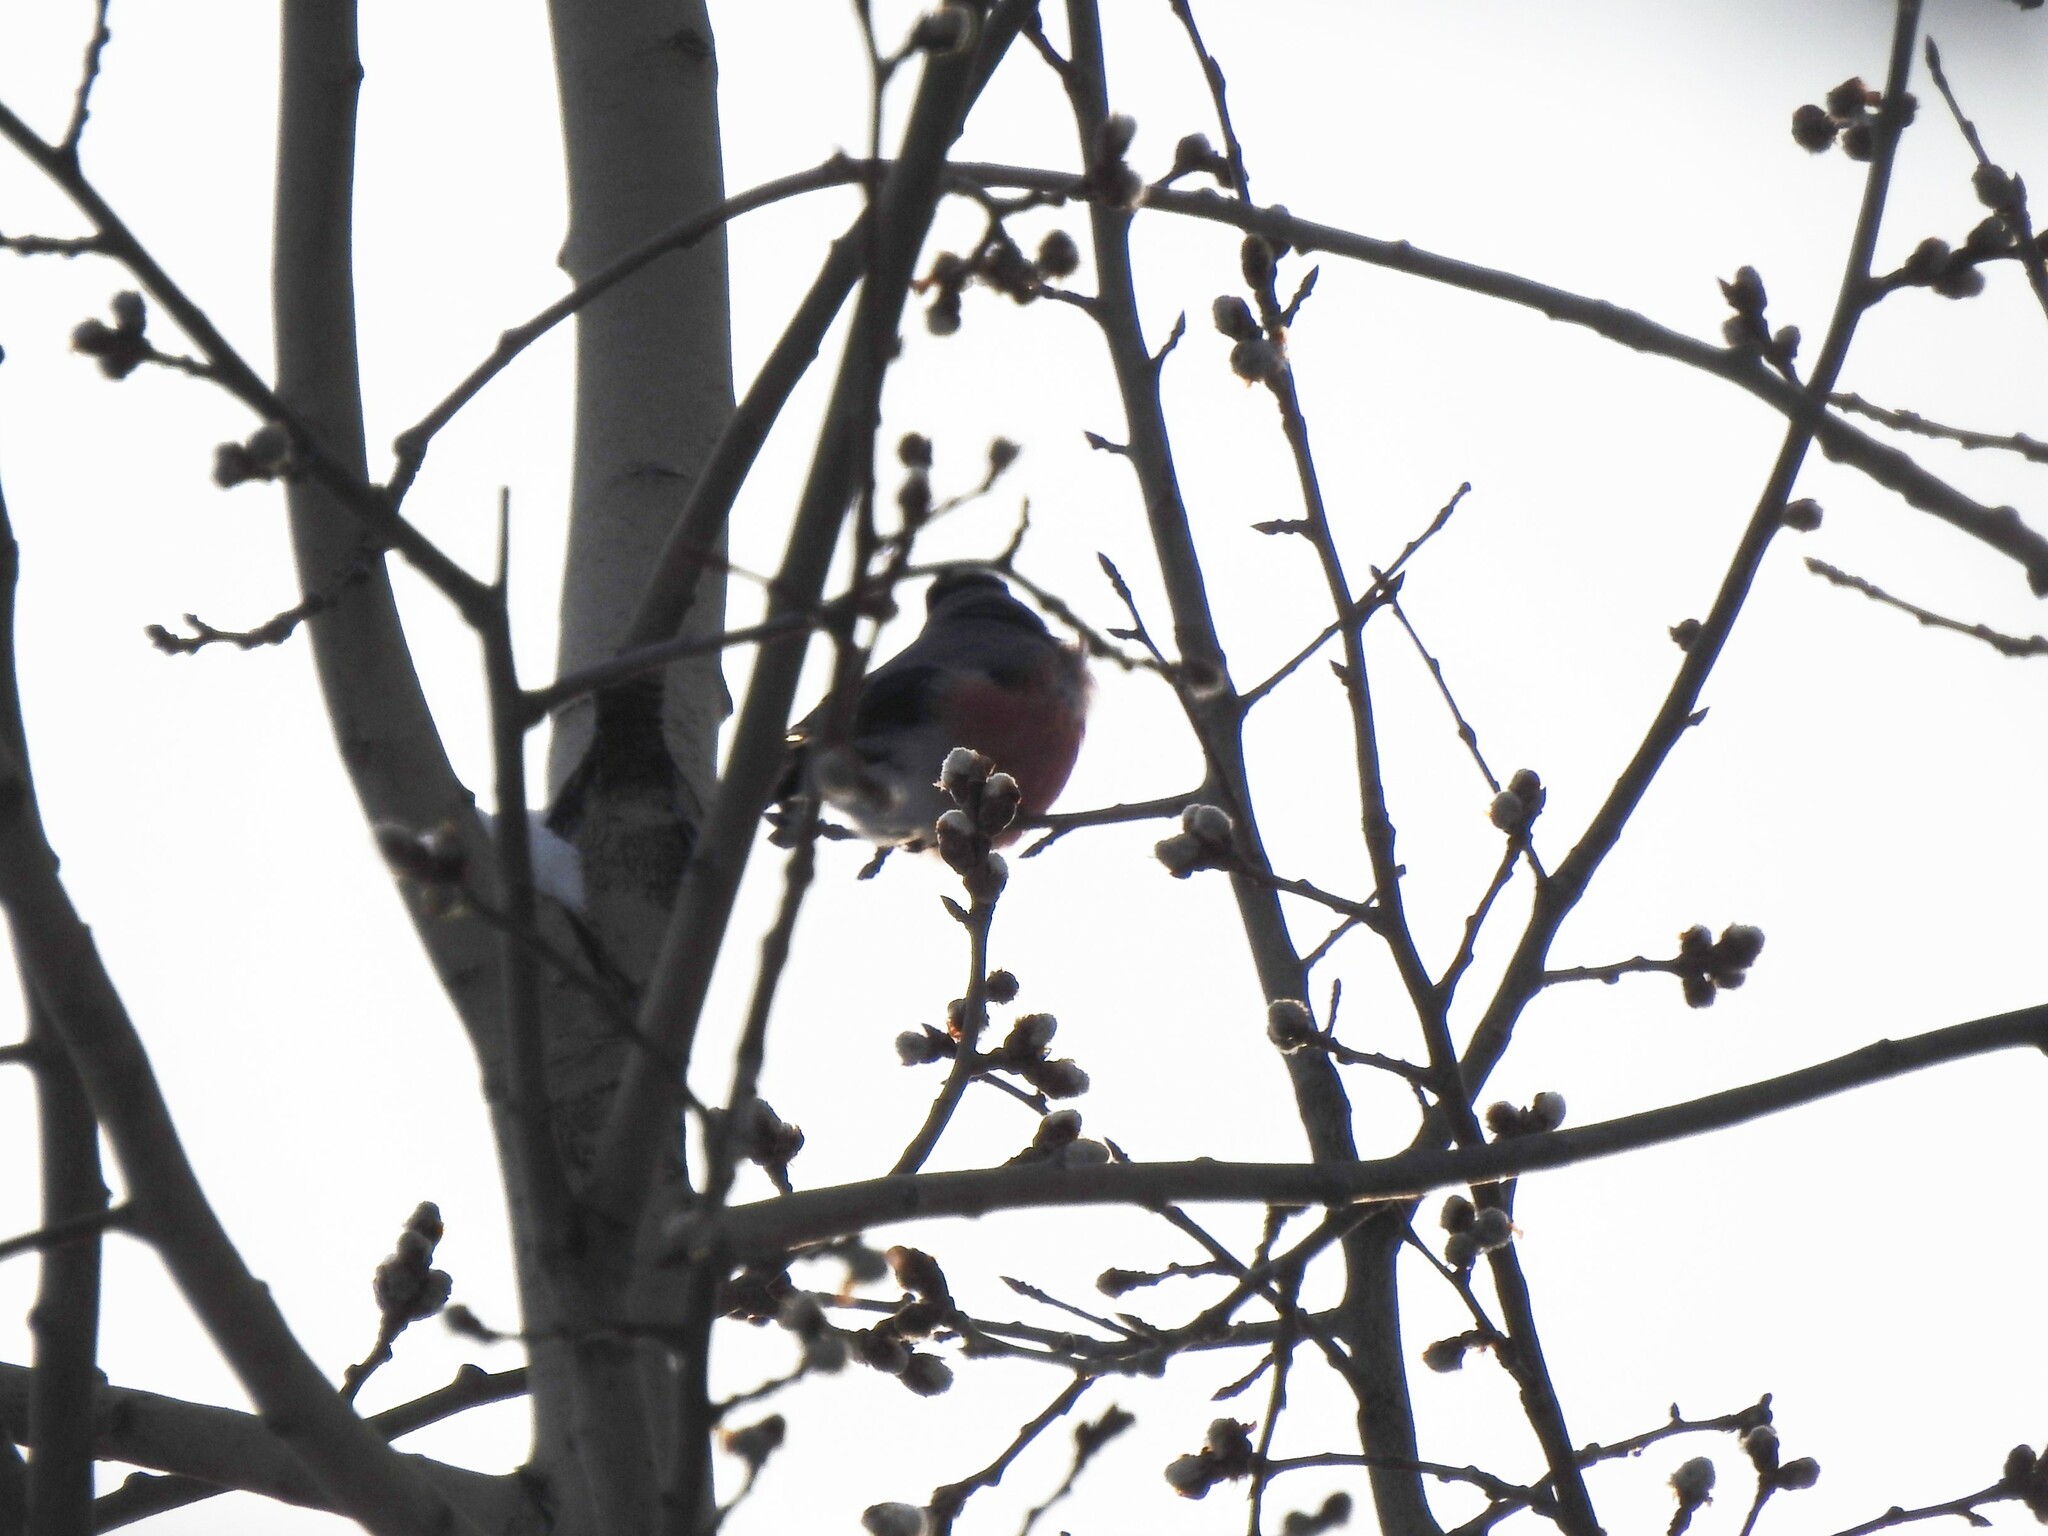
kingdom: Animalia
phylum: Chordata
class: Aves
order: Passeriformes
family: Fringillidae
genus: Pyrrhula
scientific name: Pyrrhula pyrrhula
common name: Eurasian bullfinch
